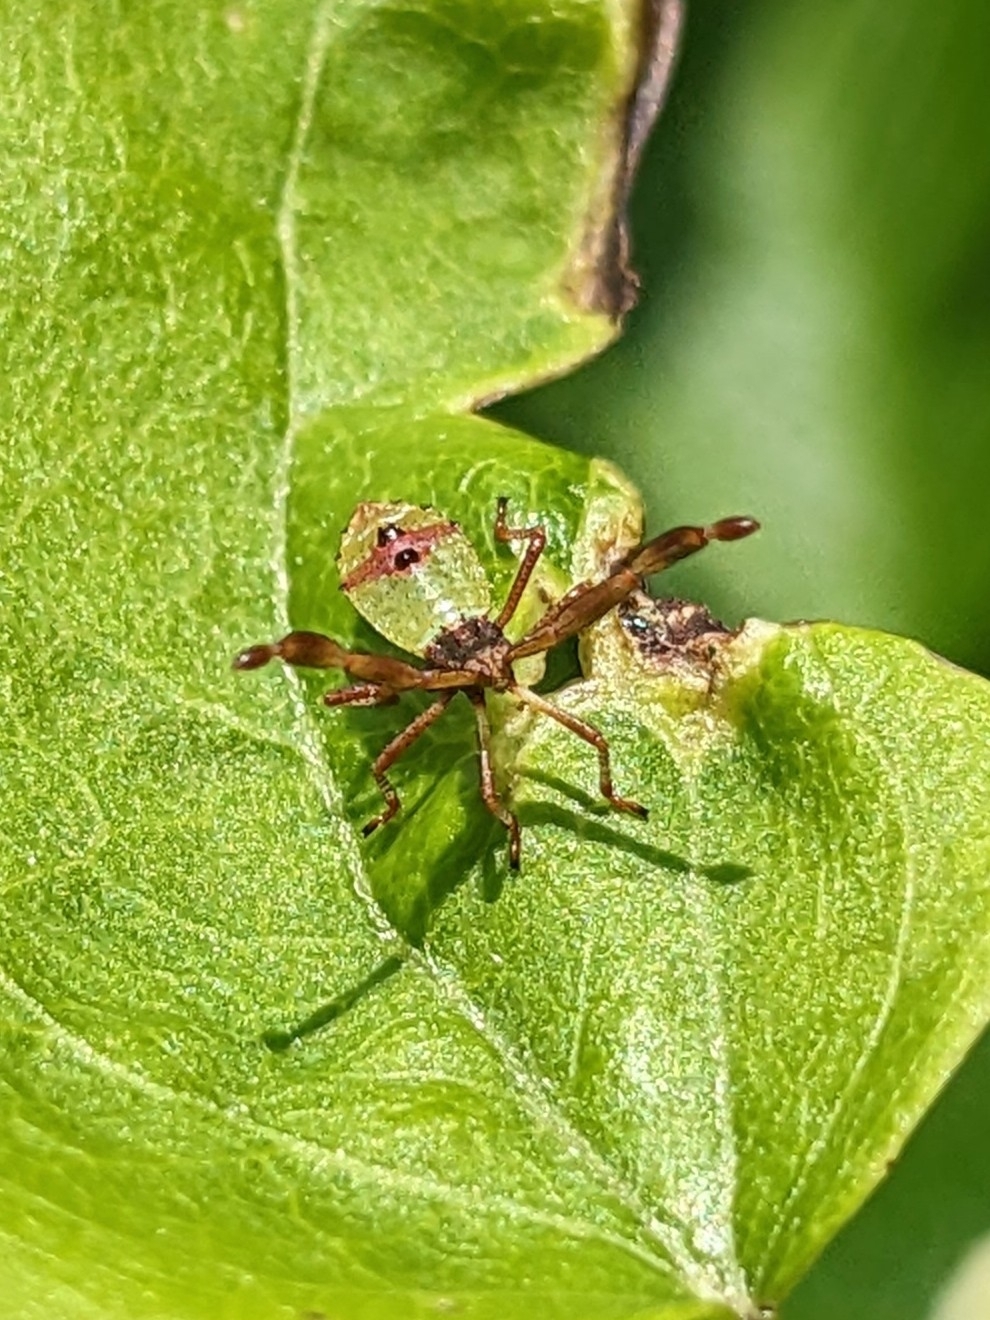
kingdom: Animalia
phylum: Arthropoda
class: Insecta
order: Hemiptera
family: Coreidae
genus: Gonocerus
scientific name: Gonocerus acuteangulatus
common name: Box bug
